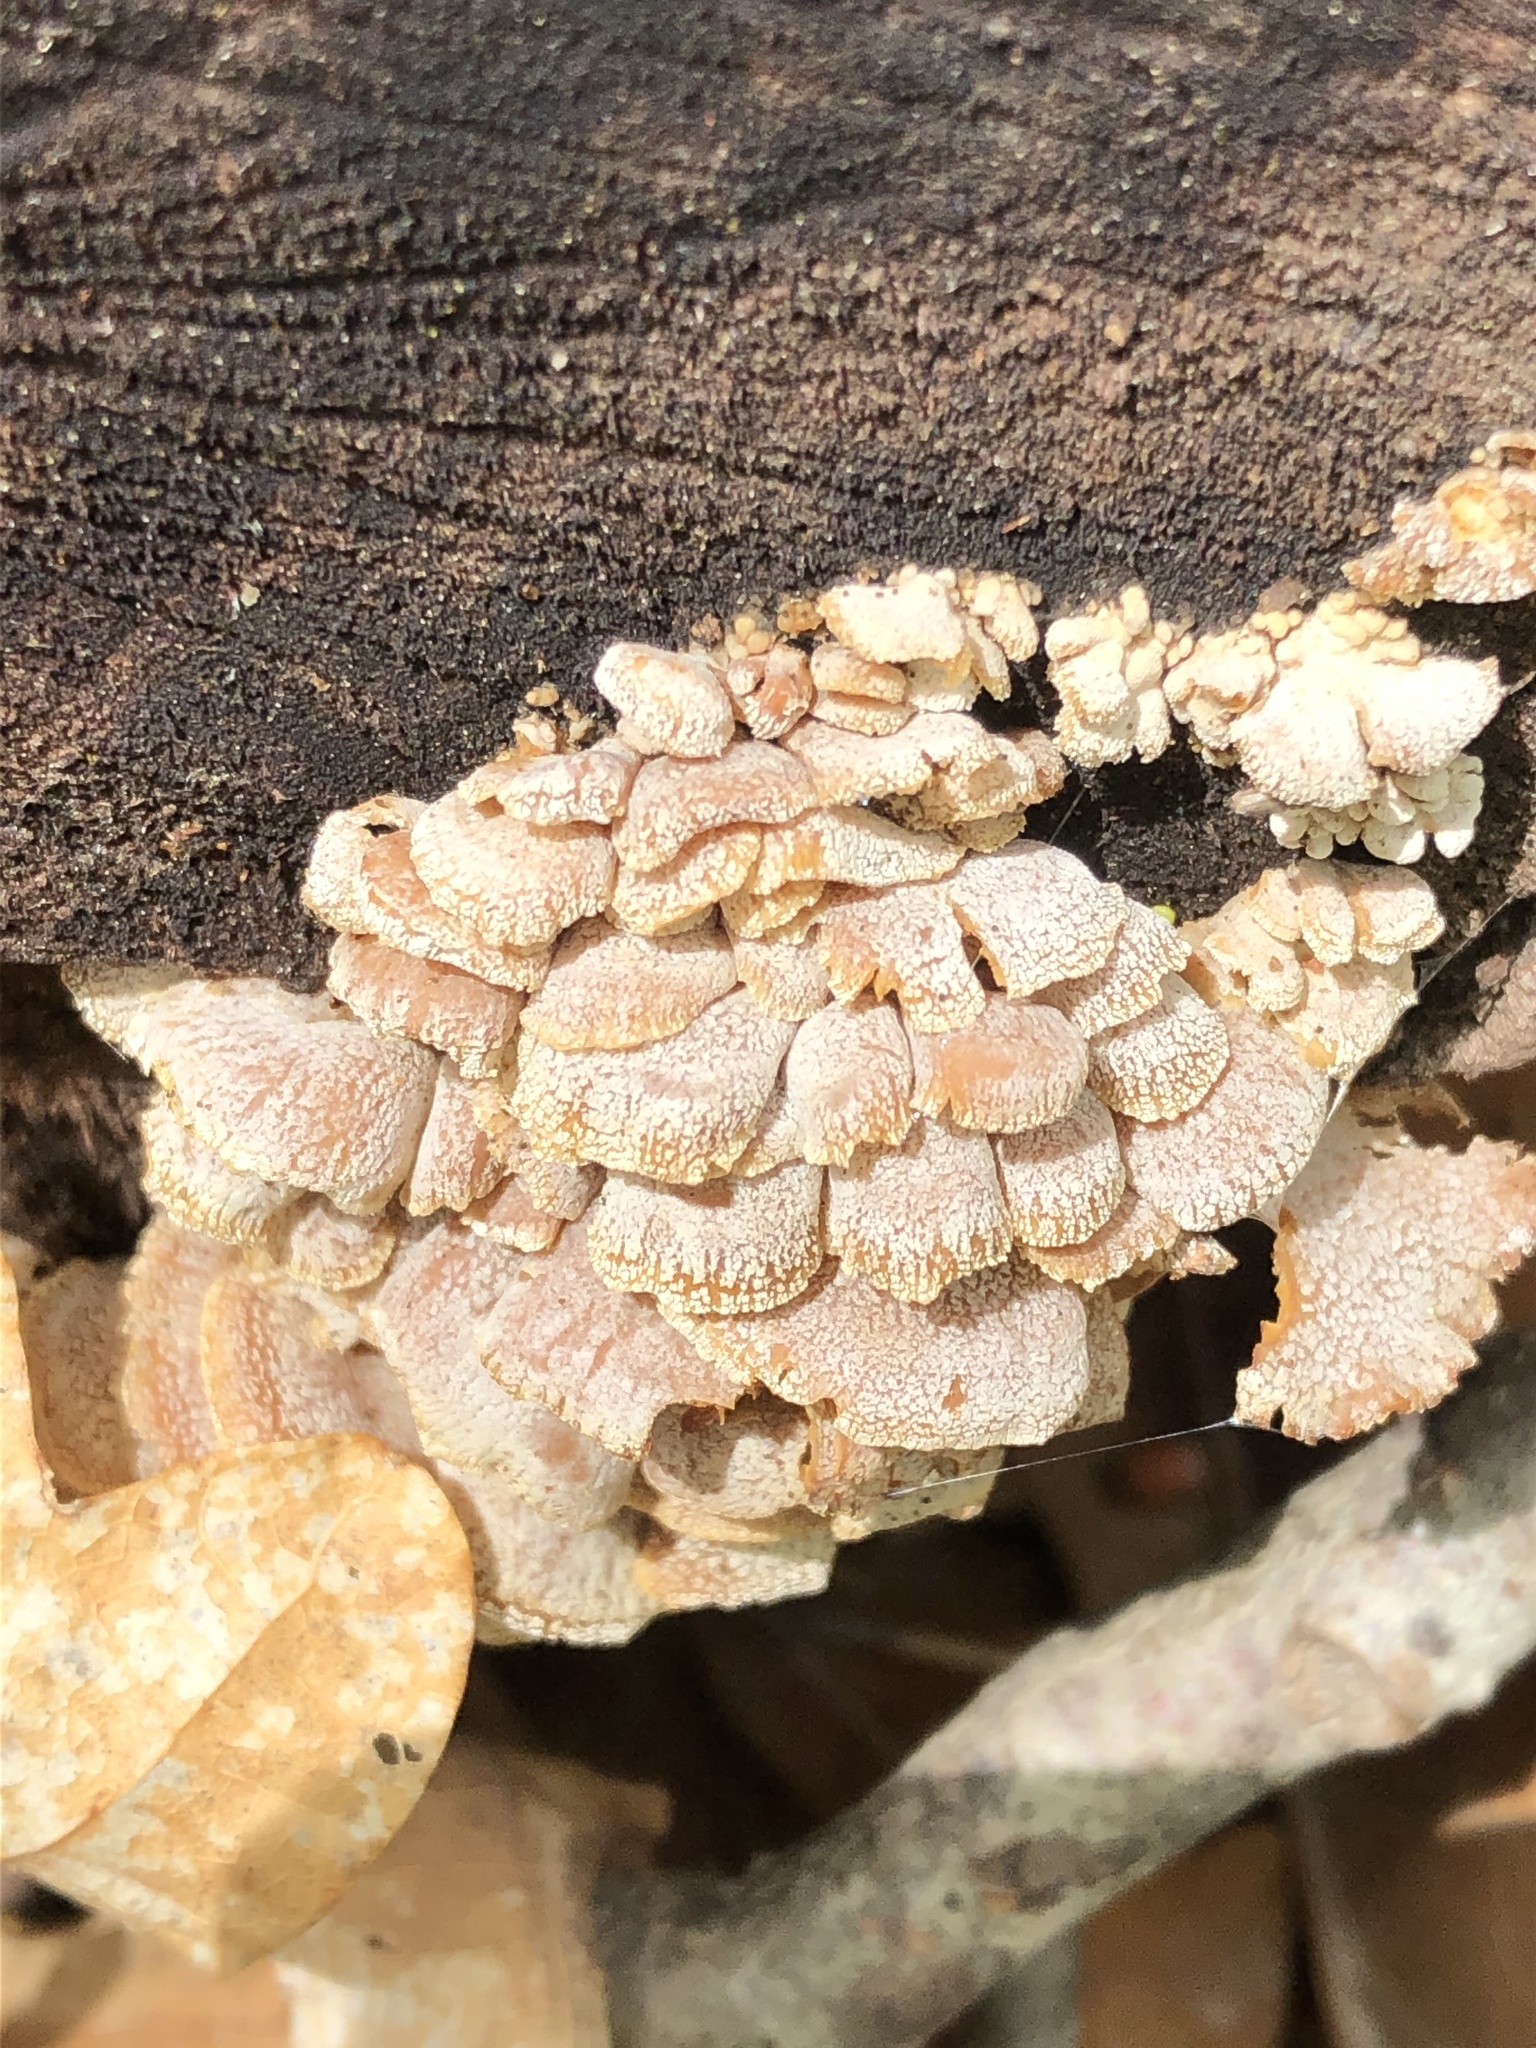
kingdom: Fungi
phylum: Basidiomycota
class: Agaricomycetes
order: Agaricales
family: Mycenaceae
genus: Panellus
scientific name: Panellus stipticus
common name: Bitter oysterling
